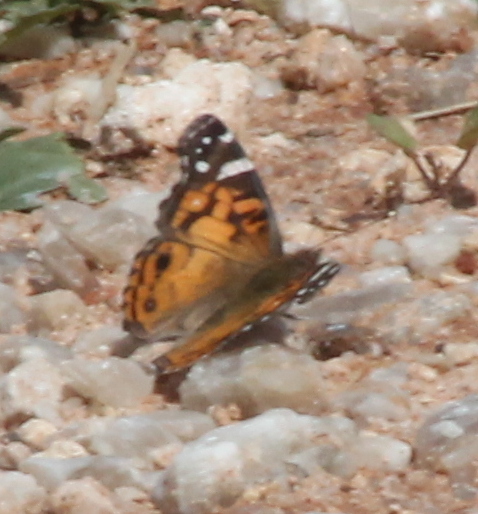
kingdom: Animalia
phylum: Arthropoda
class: Insecta
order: Lepidoptera
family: Nymphalidae
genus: Vanessa
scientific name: Vanessa virginiensis
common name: American lady
